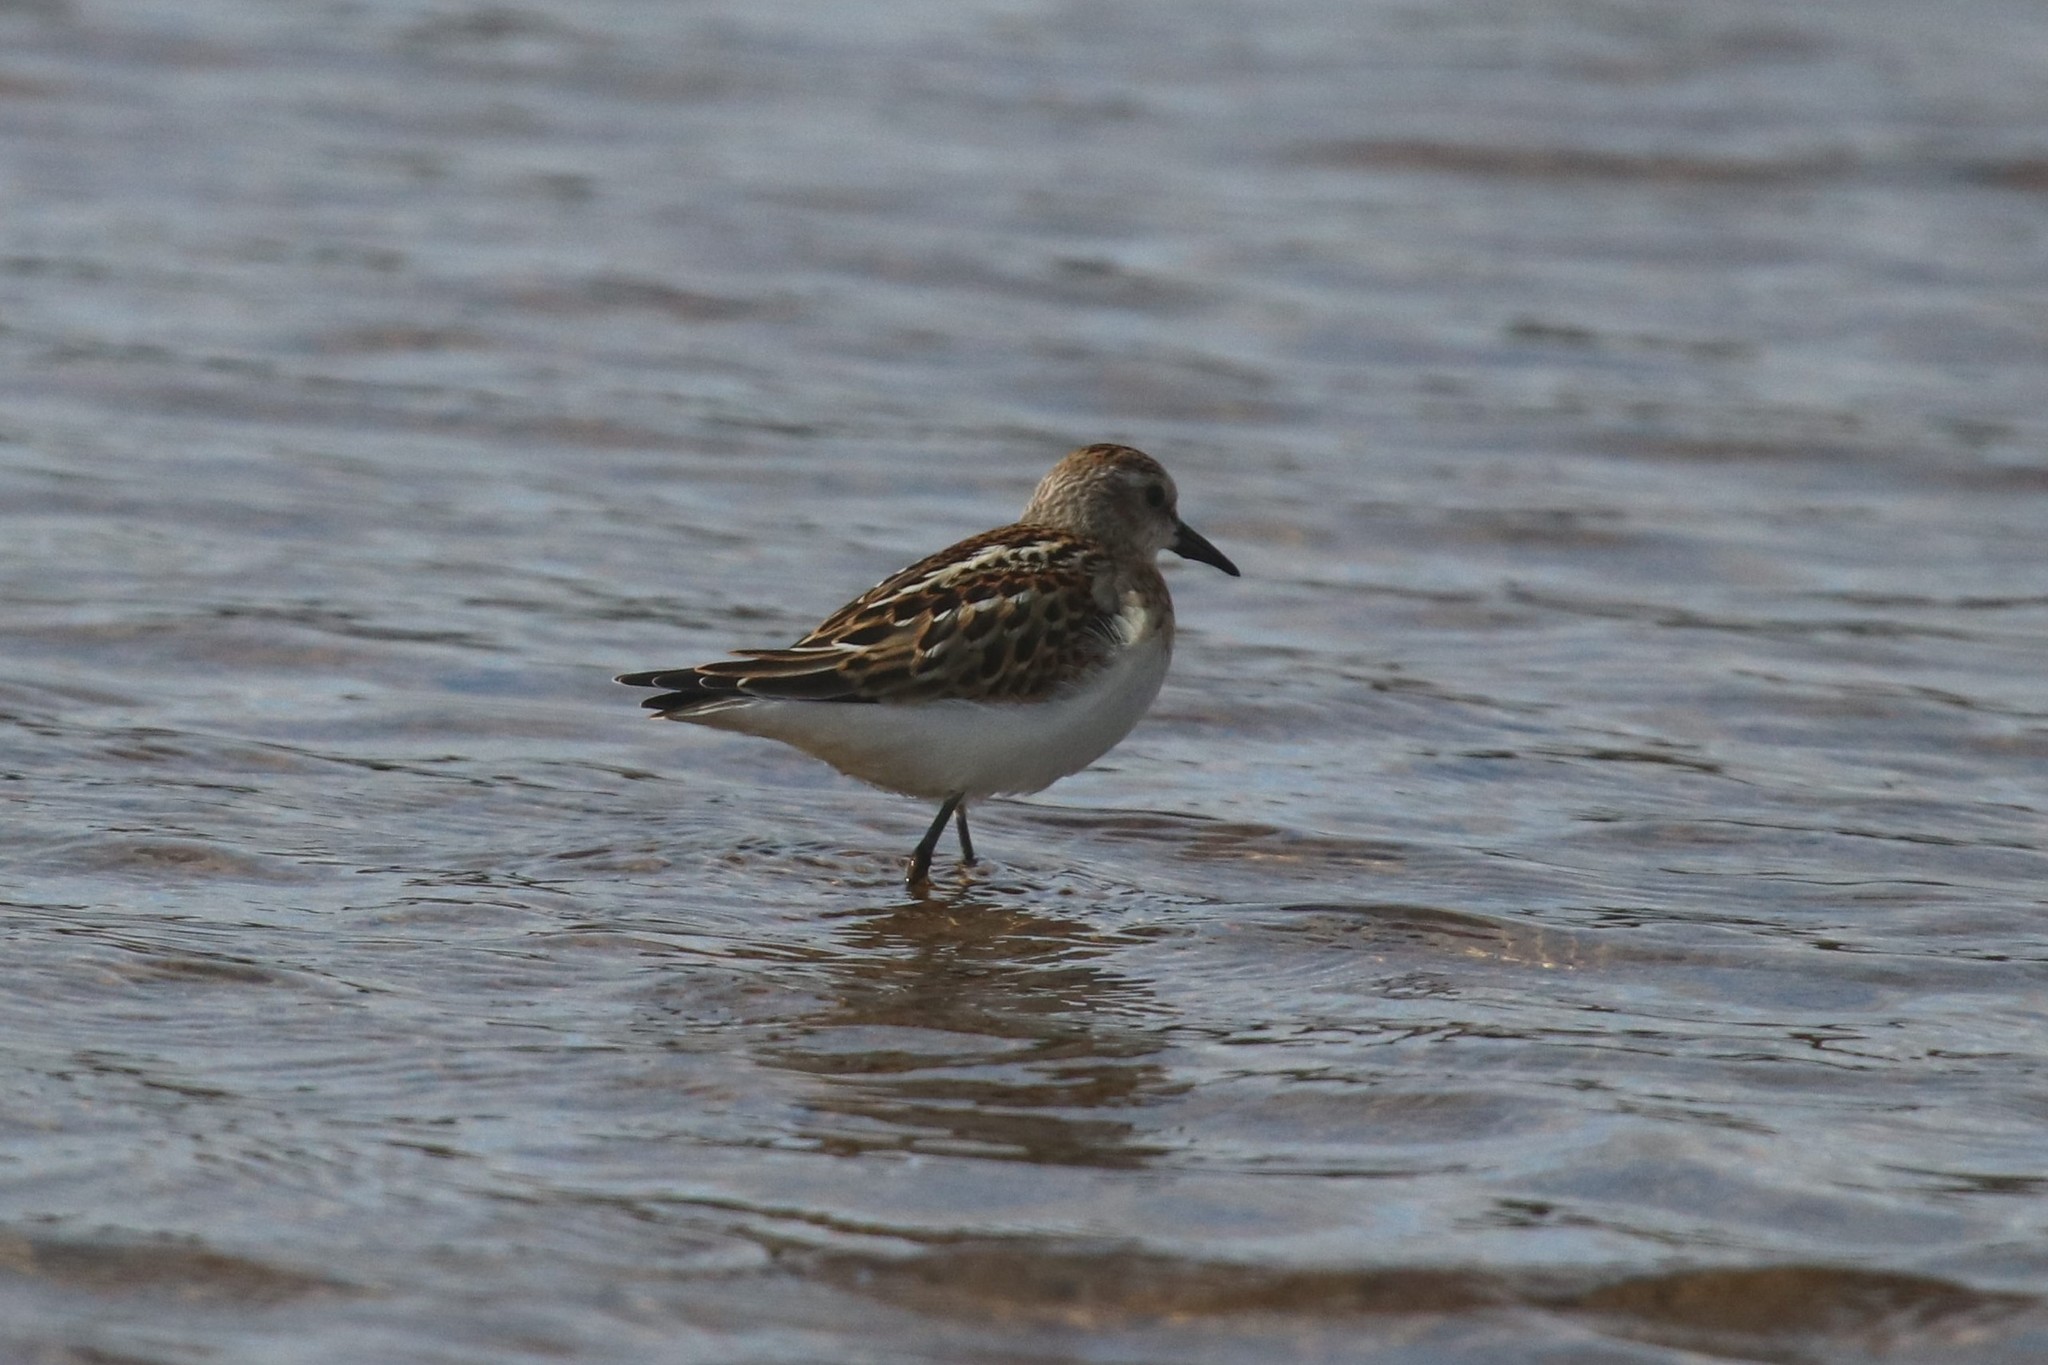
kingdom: Animalia
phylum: Chordata
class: Aves
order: Charadriiformes
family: Scolopacidae
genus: Calidris
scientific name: Calidris minuta
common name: Little stint
